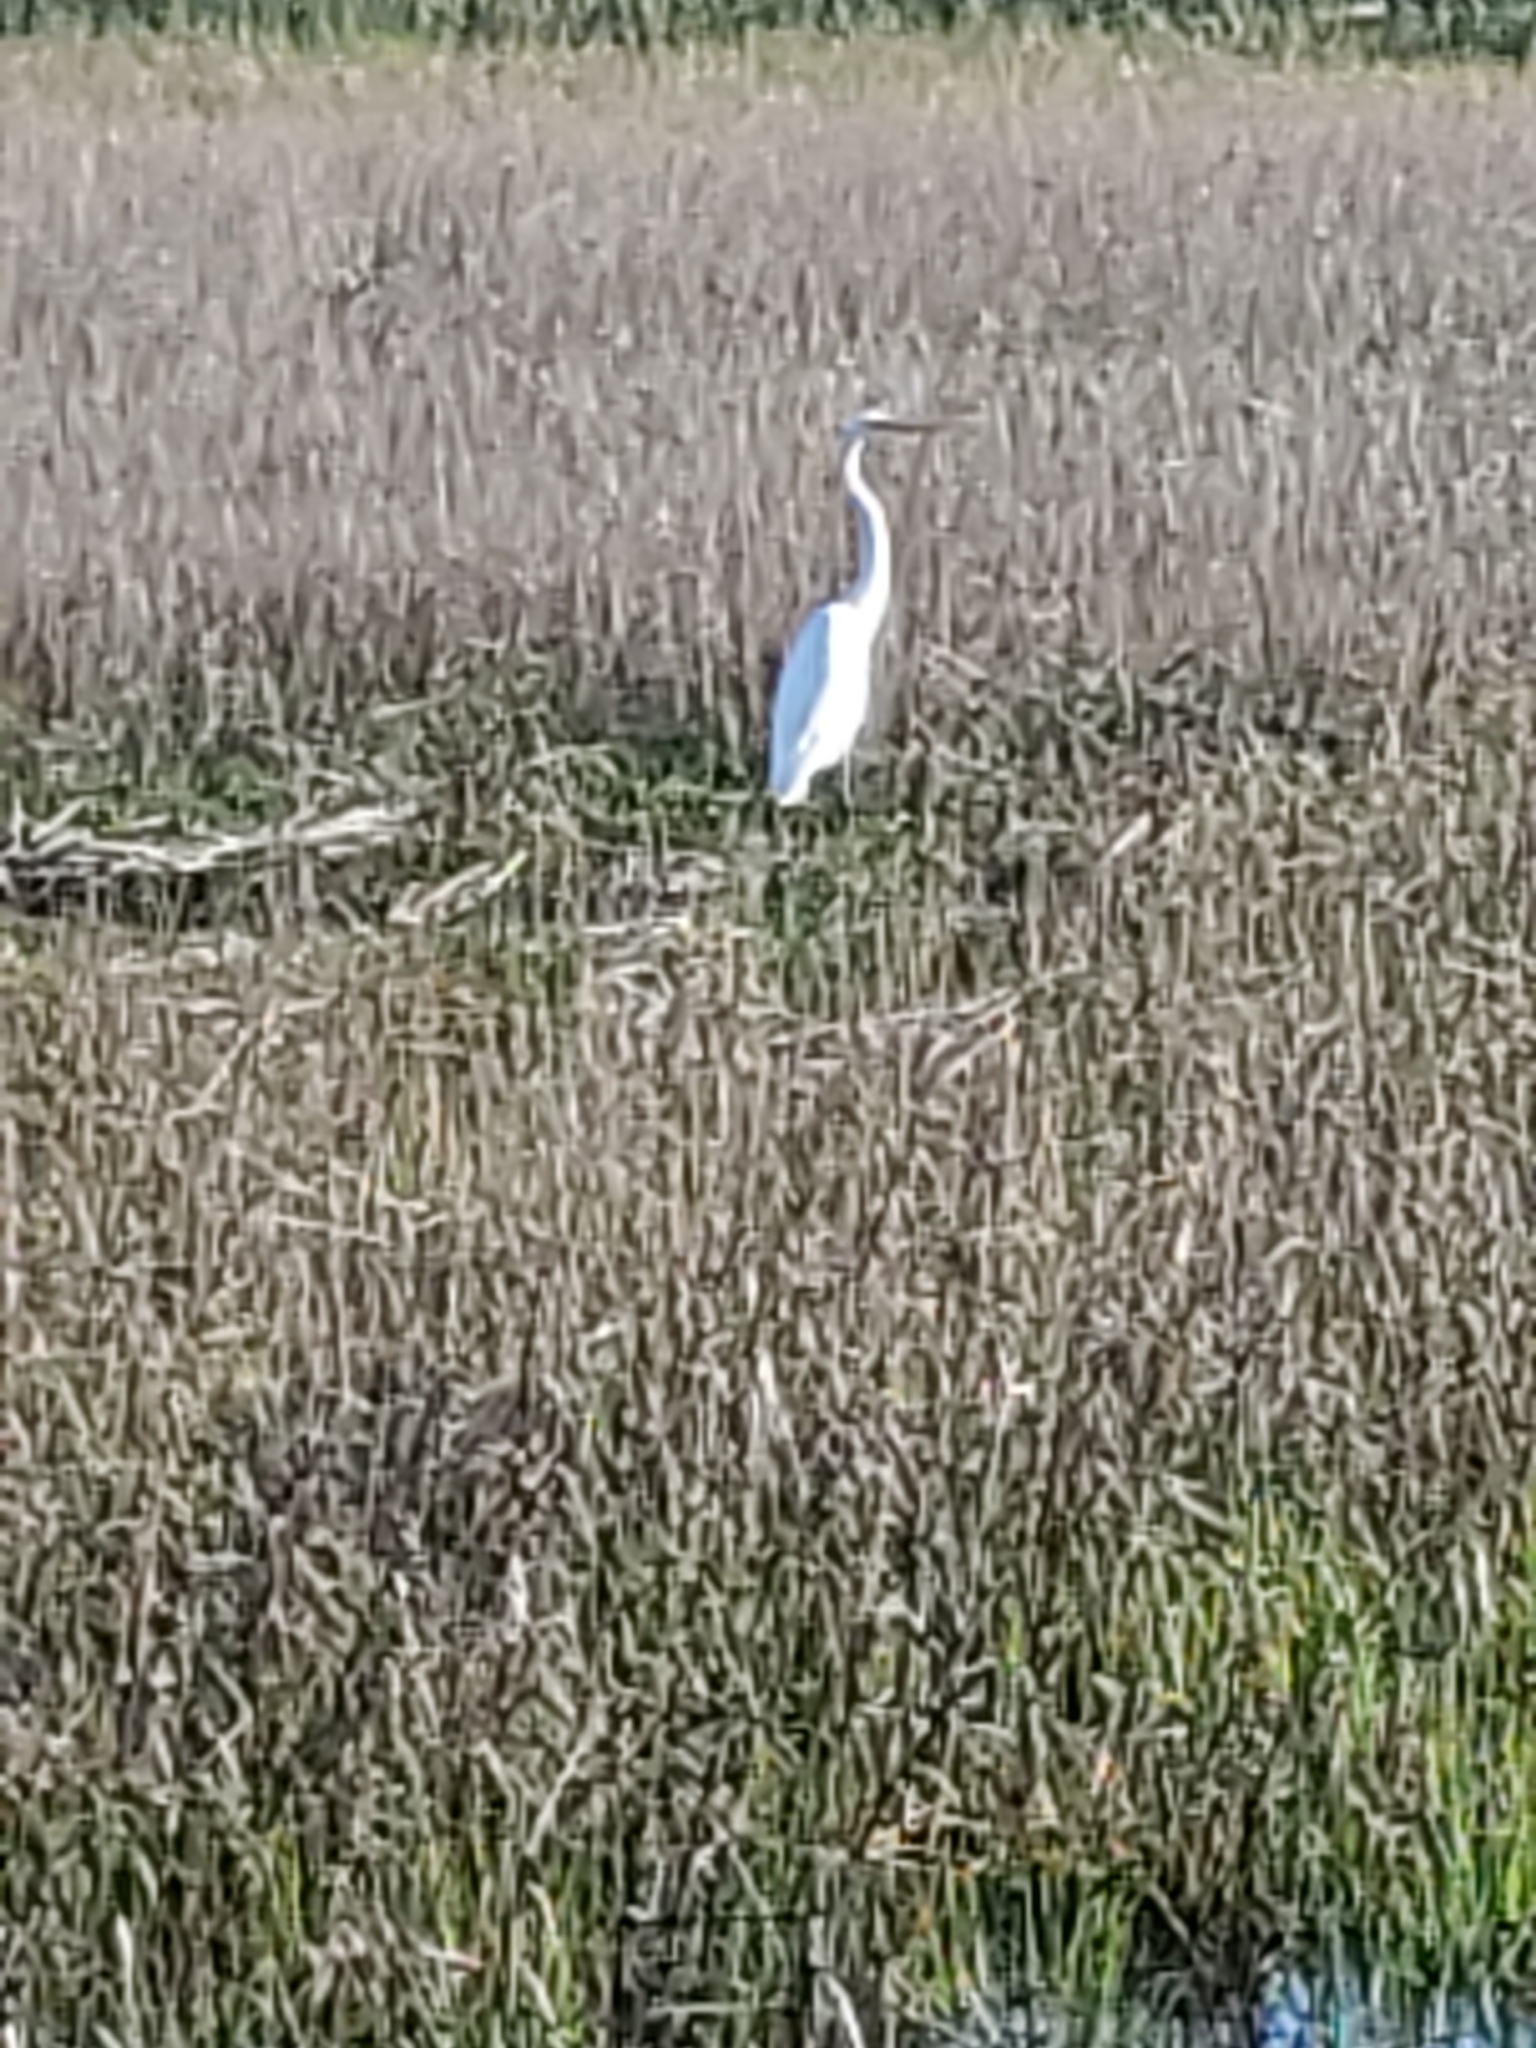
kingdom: Animalia
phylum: Chordata
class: Aves
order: Pelecaniformes
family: Ardeidae
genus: Ardea
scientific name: Ardea alba
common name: Great egret
